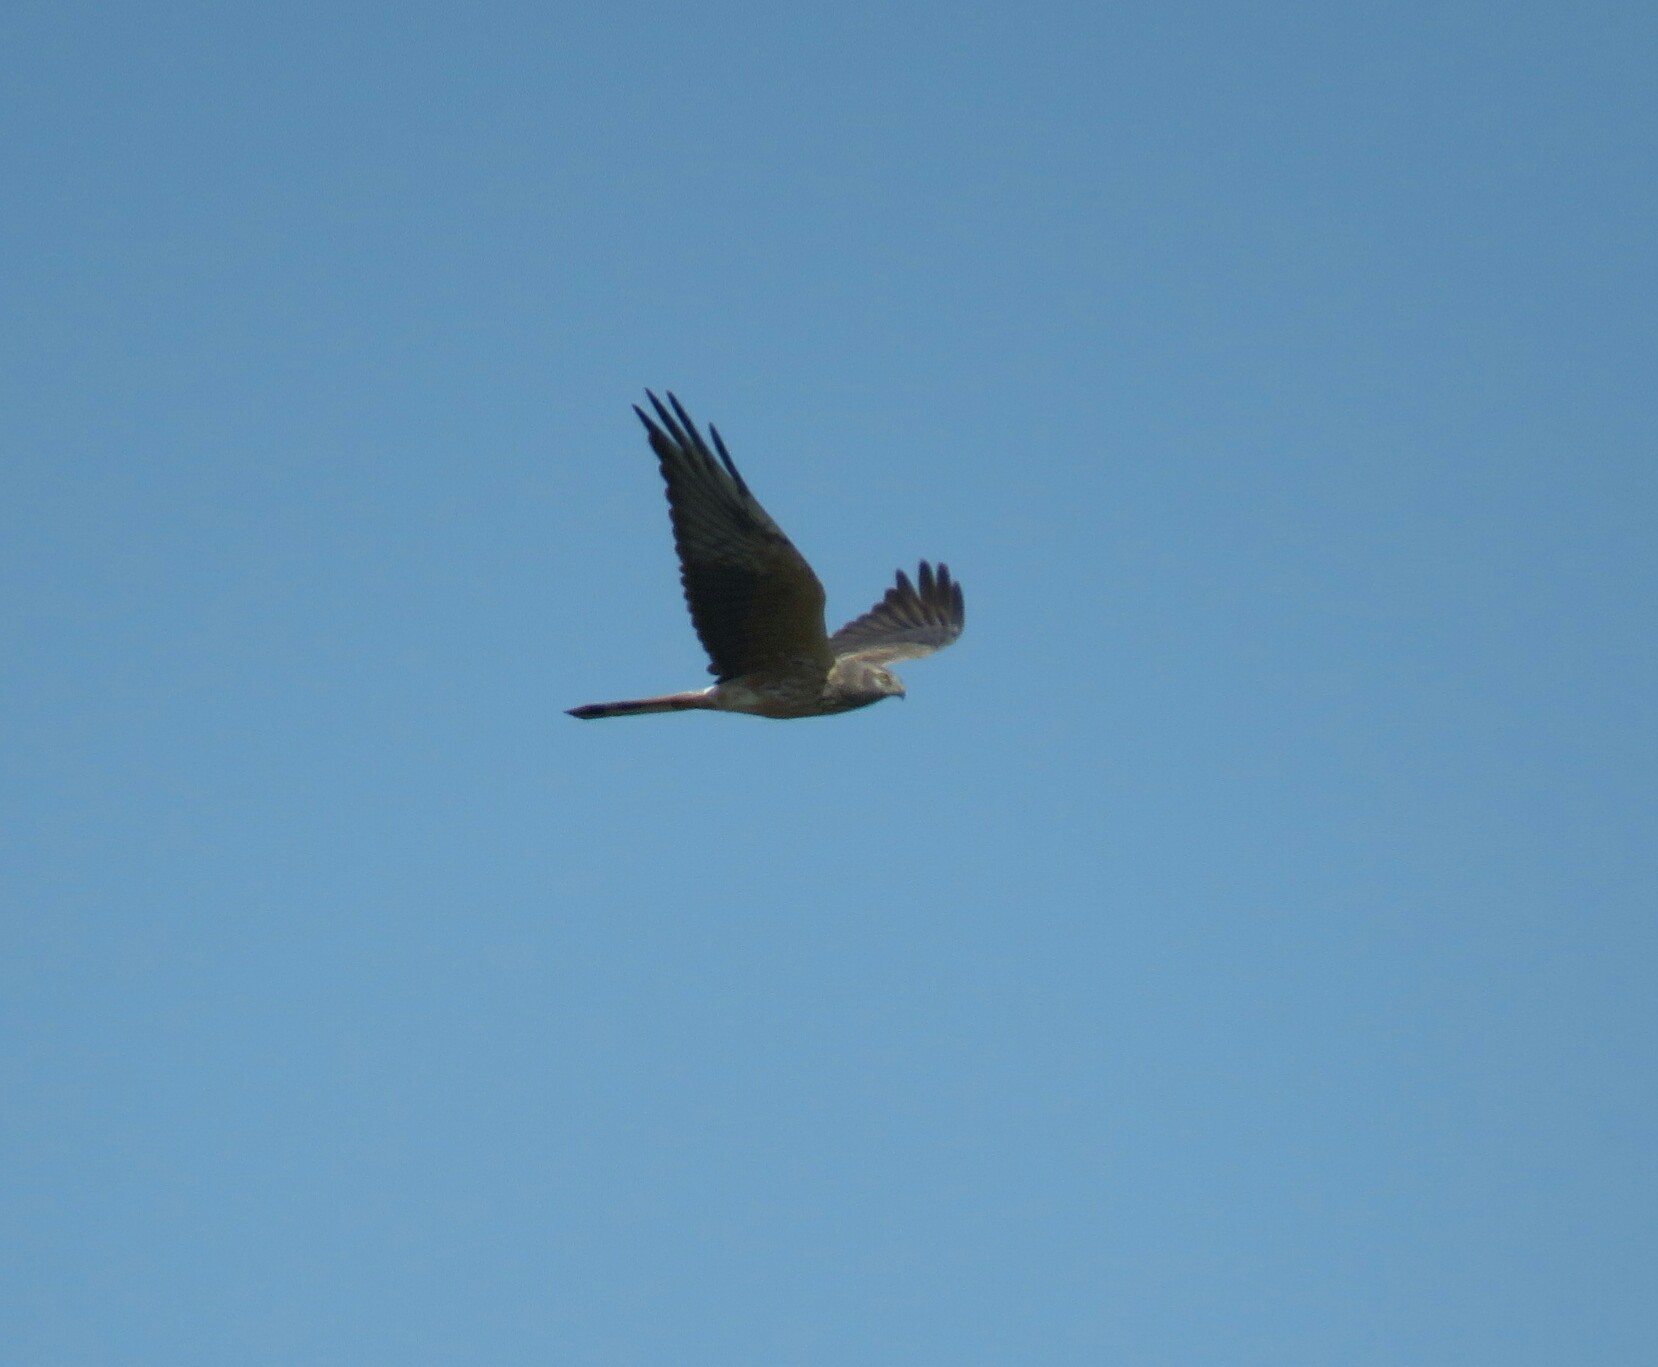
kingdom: Animalia
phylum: Chordata
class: Aves
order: Accipitriformes
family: Accipitridae
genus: Circus
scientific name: Circus pygargus
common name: Montagu's harrier
